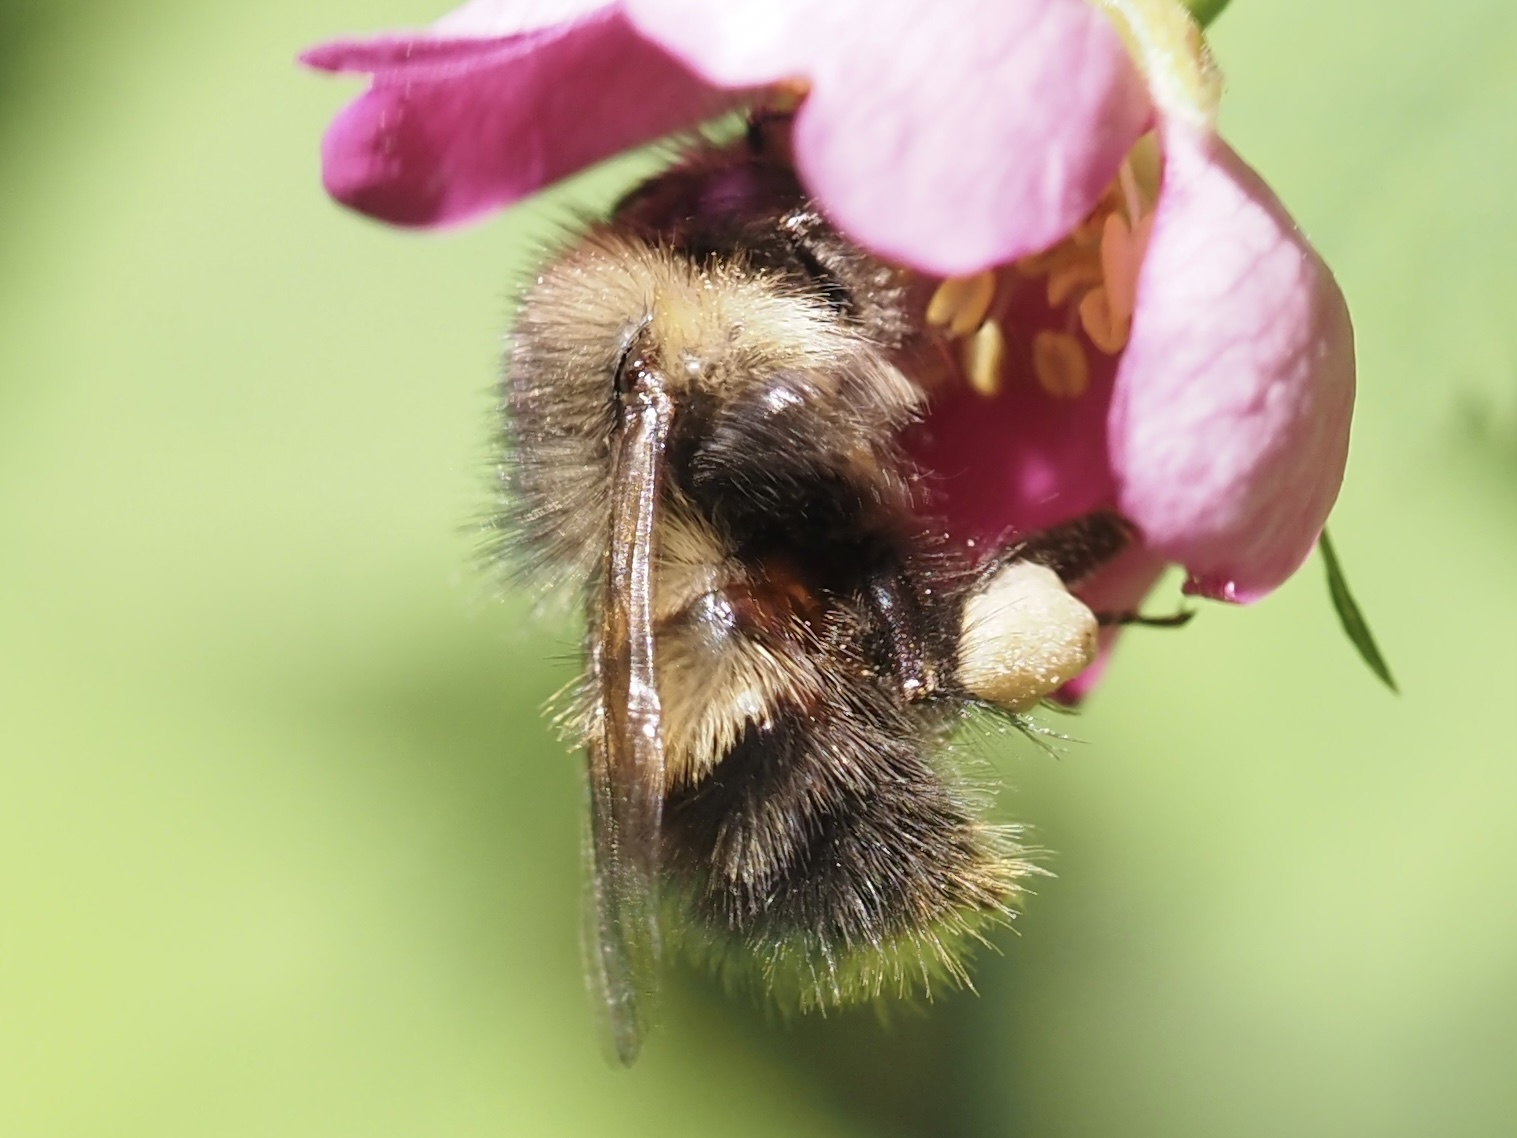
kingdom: Animalia
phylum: Arthropoda
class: Insecta
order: Hymenoptera
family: Apidae
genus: Bombus
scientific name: Bombus sitkensis
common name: Sitka bumble bee
